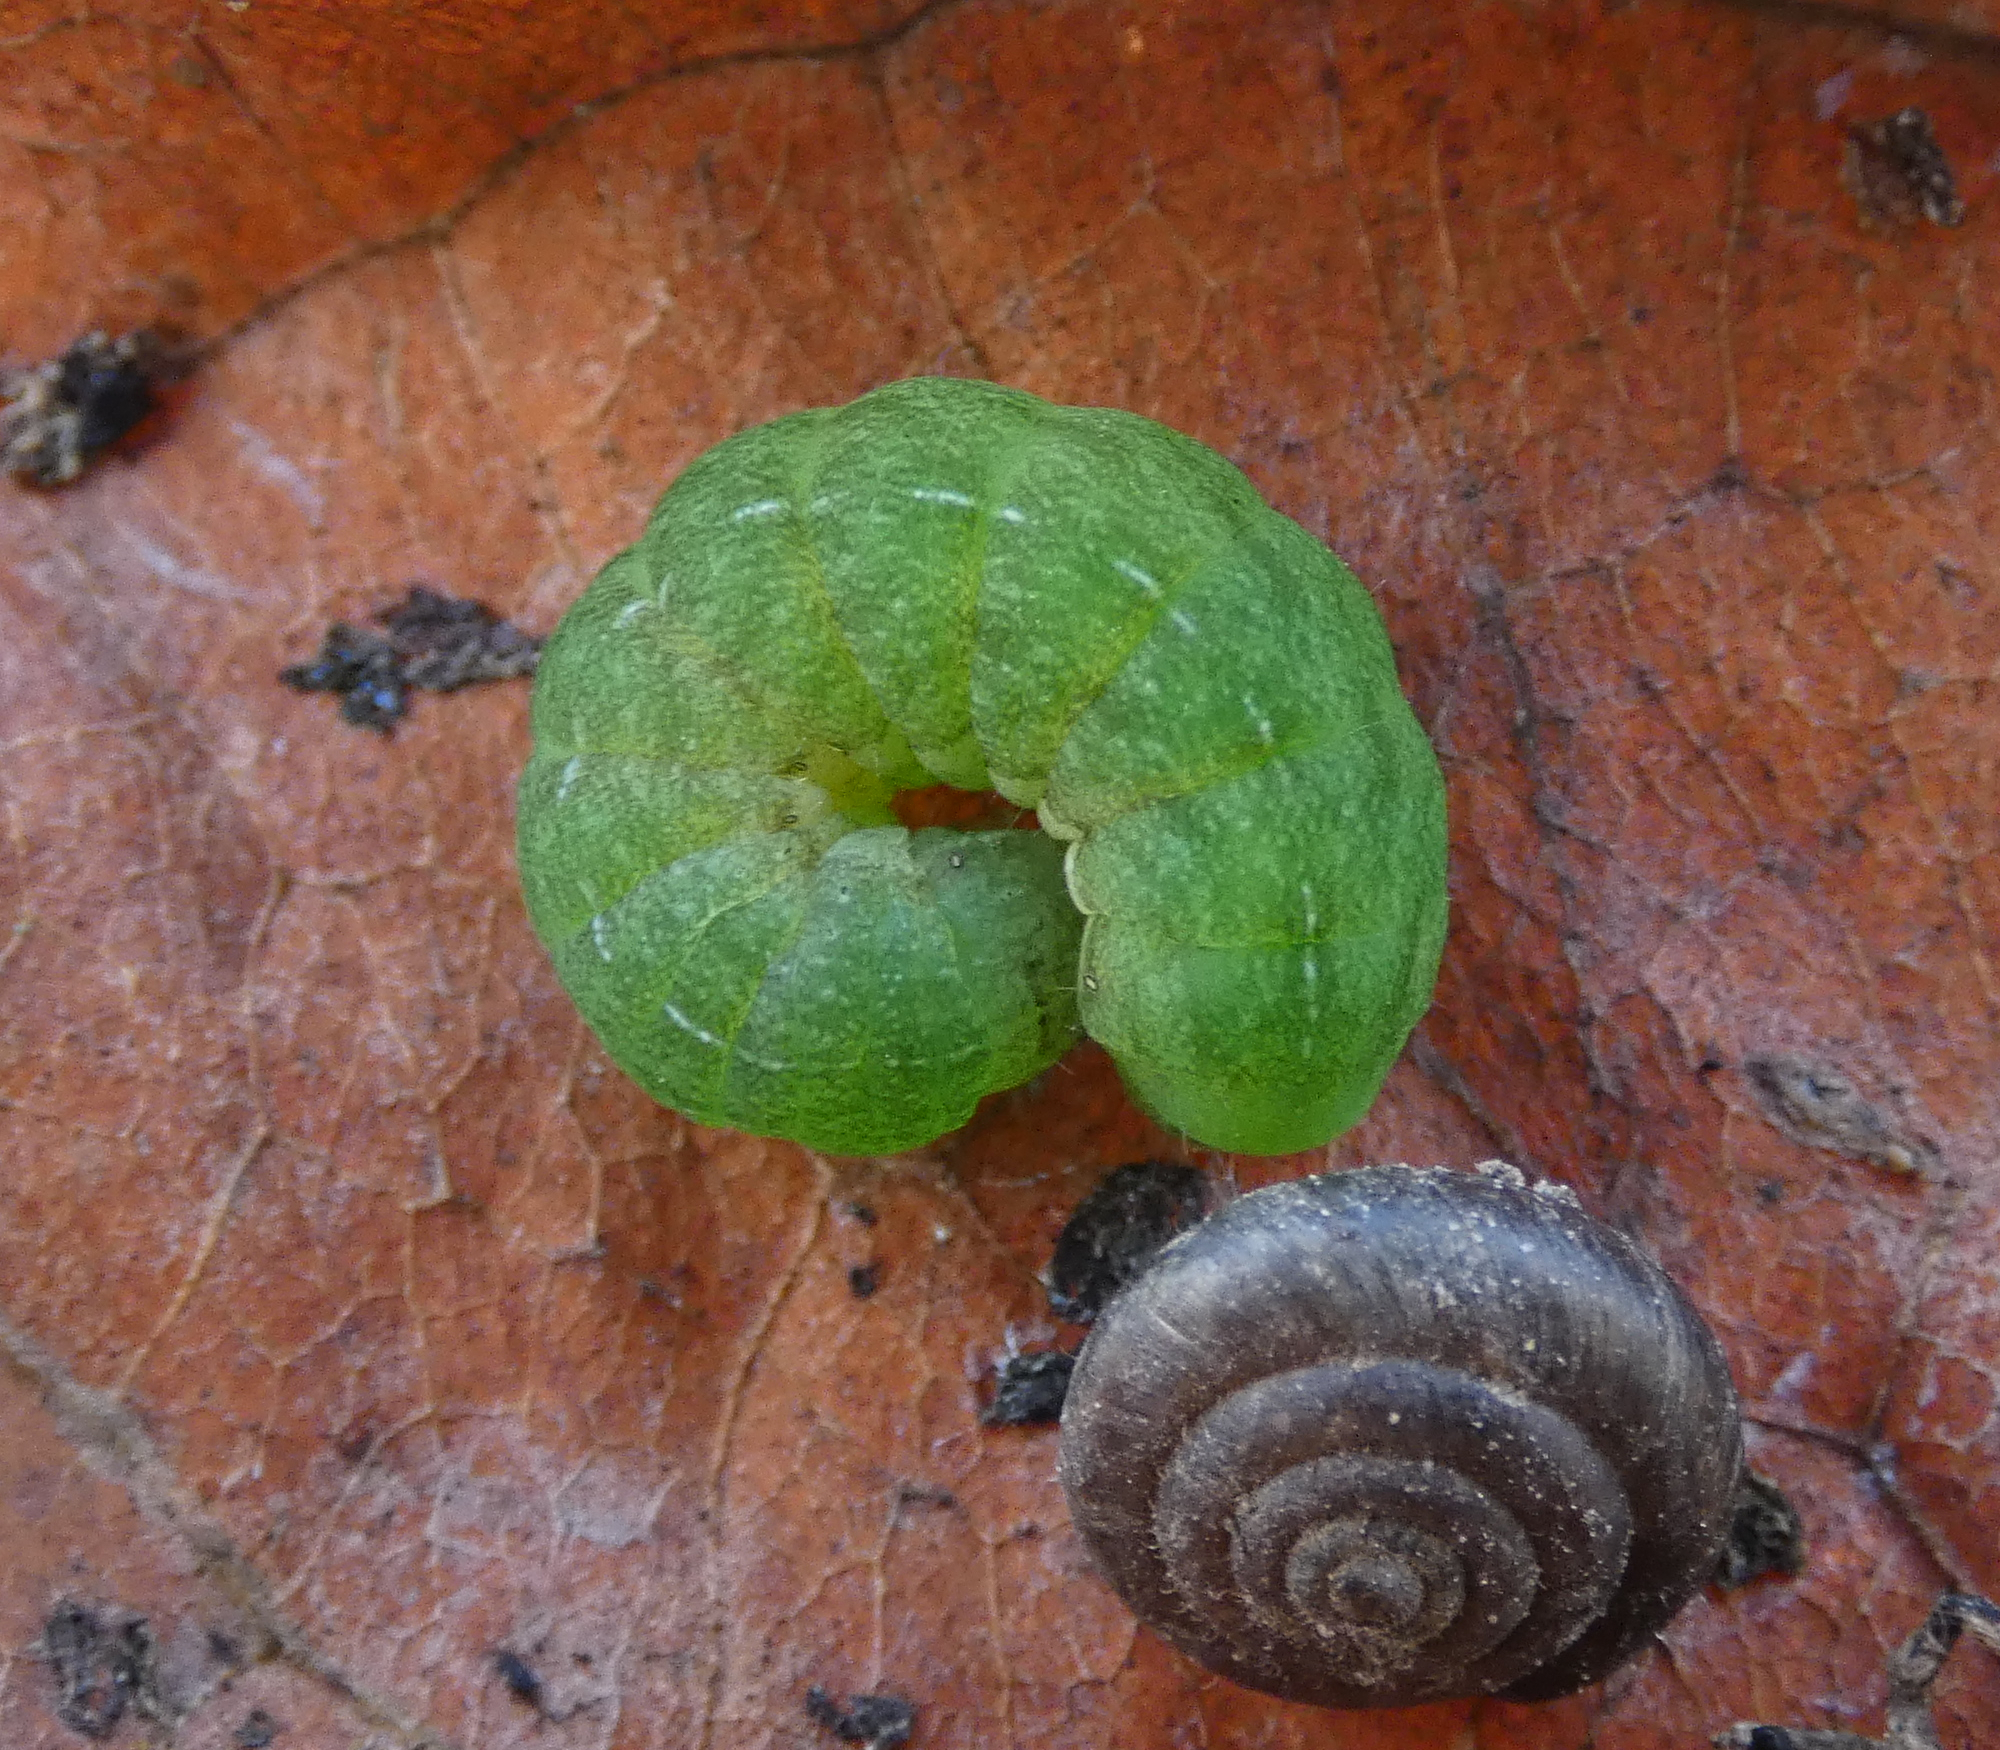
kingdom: Animalia
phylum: Arthropoda
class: Insecta
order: Lepidoptera
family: Noctuidae
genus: Phlogophora
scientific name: Phlogophora meticulosa
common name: Angle shades
